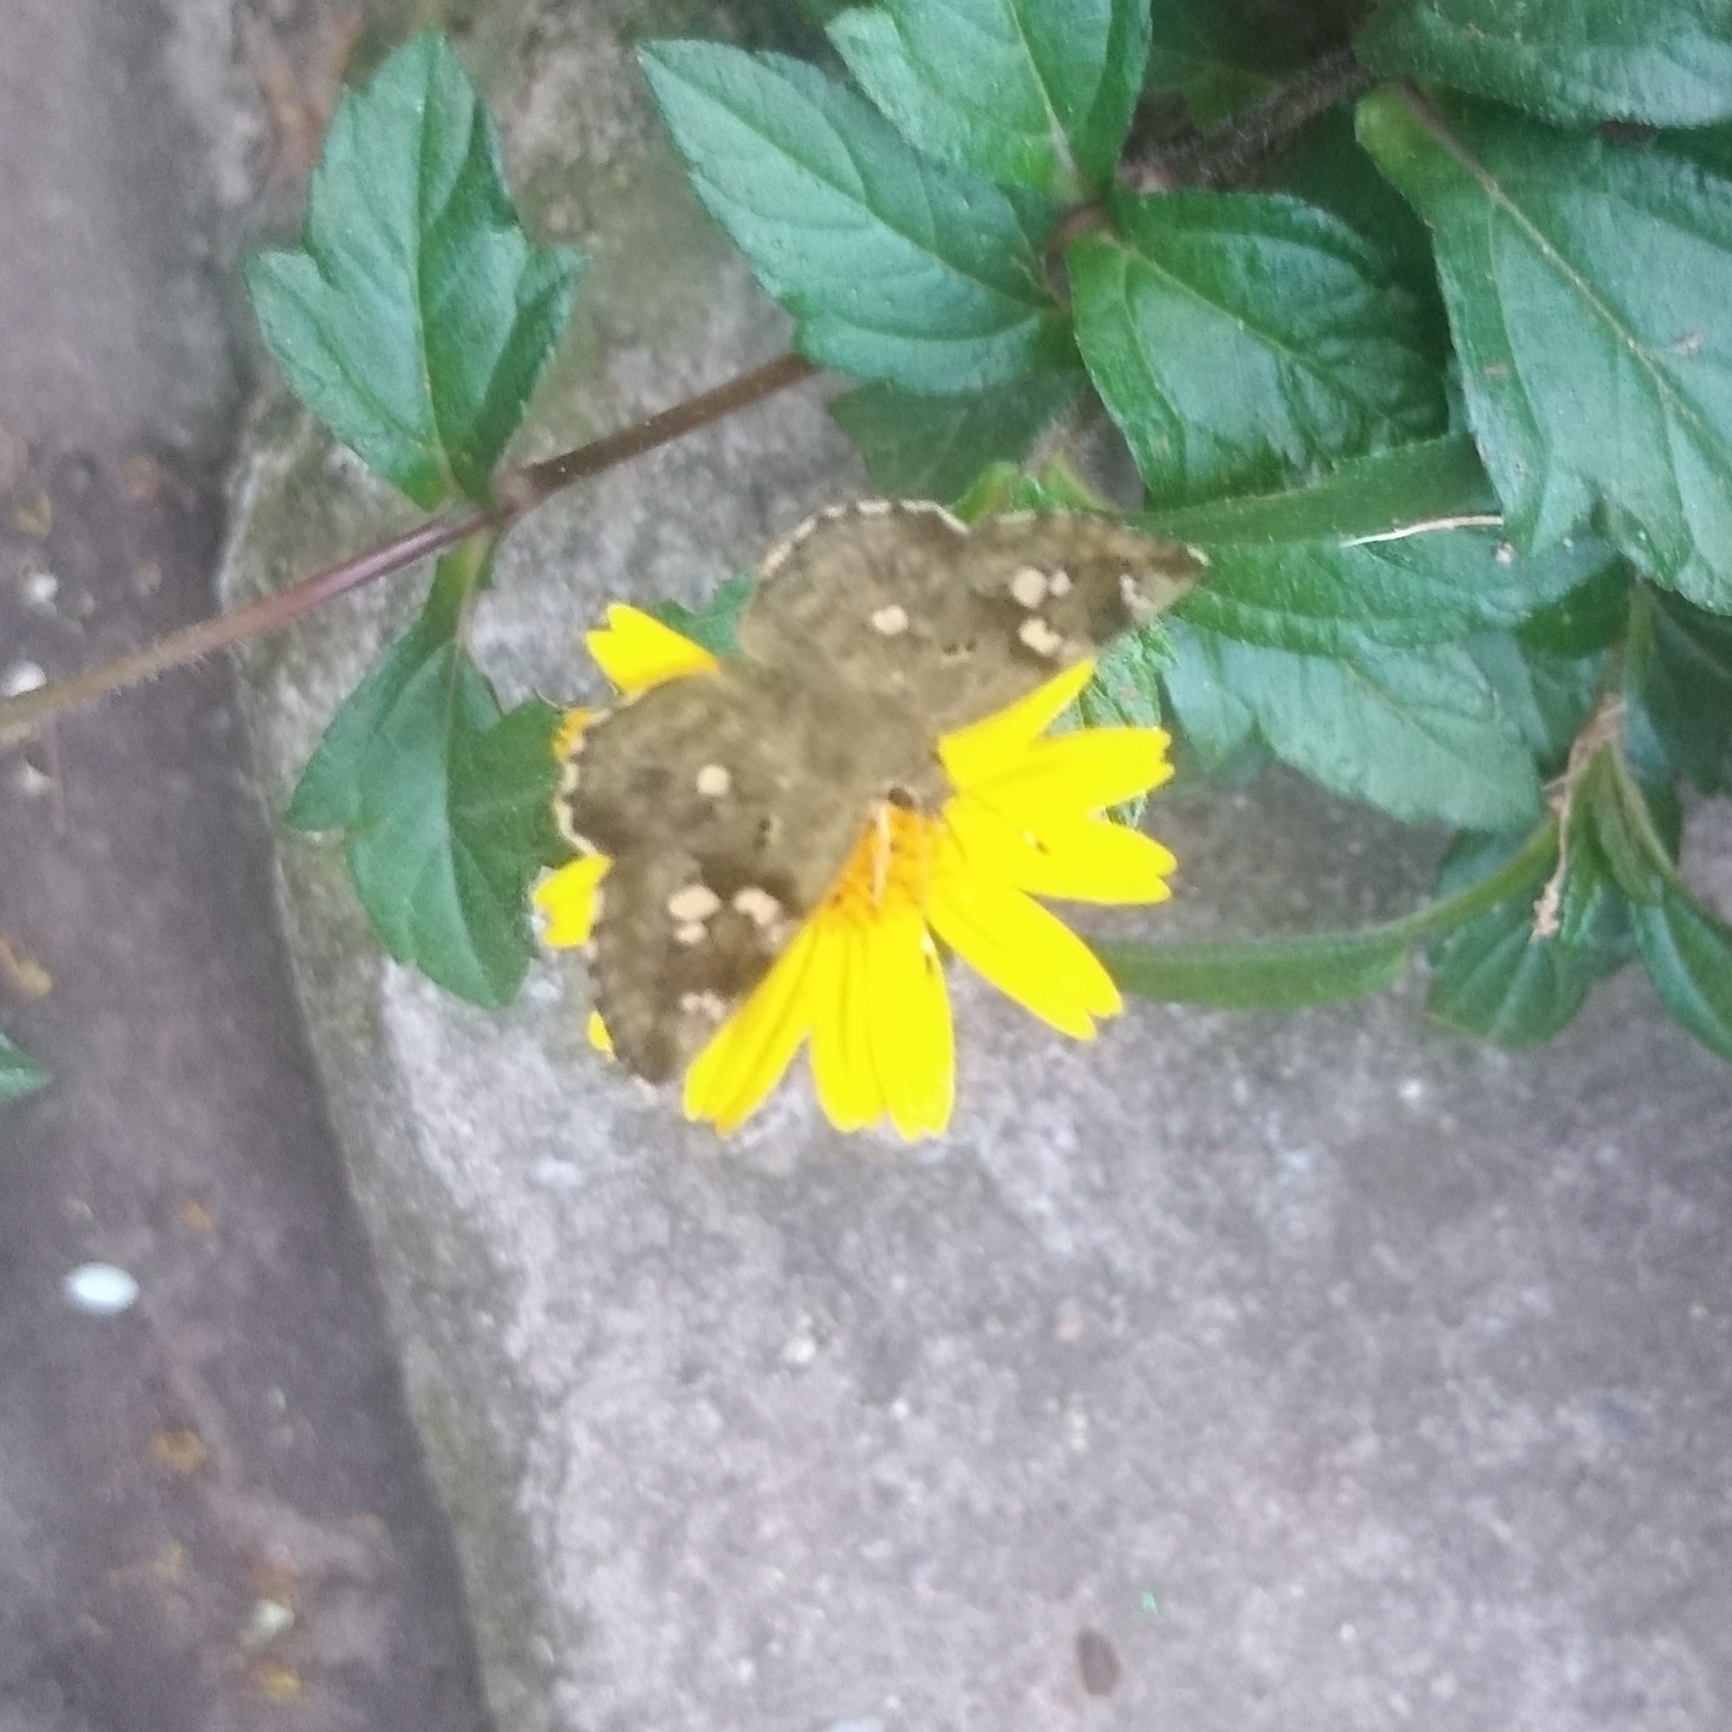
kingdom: Animalia
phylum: Arthropoda
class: Insecta
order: Lepidoptera
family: Hesperiidae
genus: Sarangesa
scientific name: Sarangesa motozi
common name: Forest elfin
